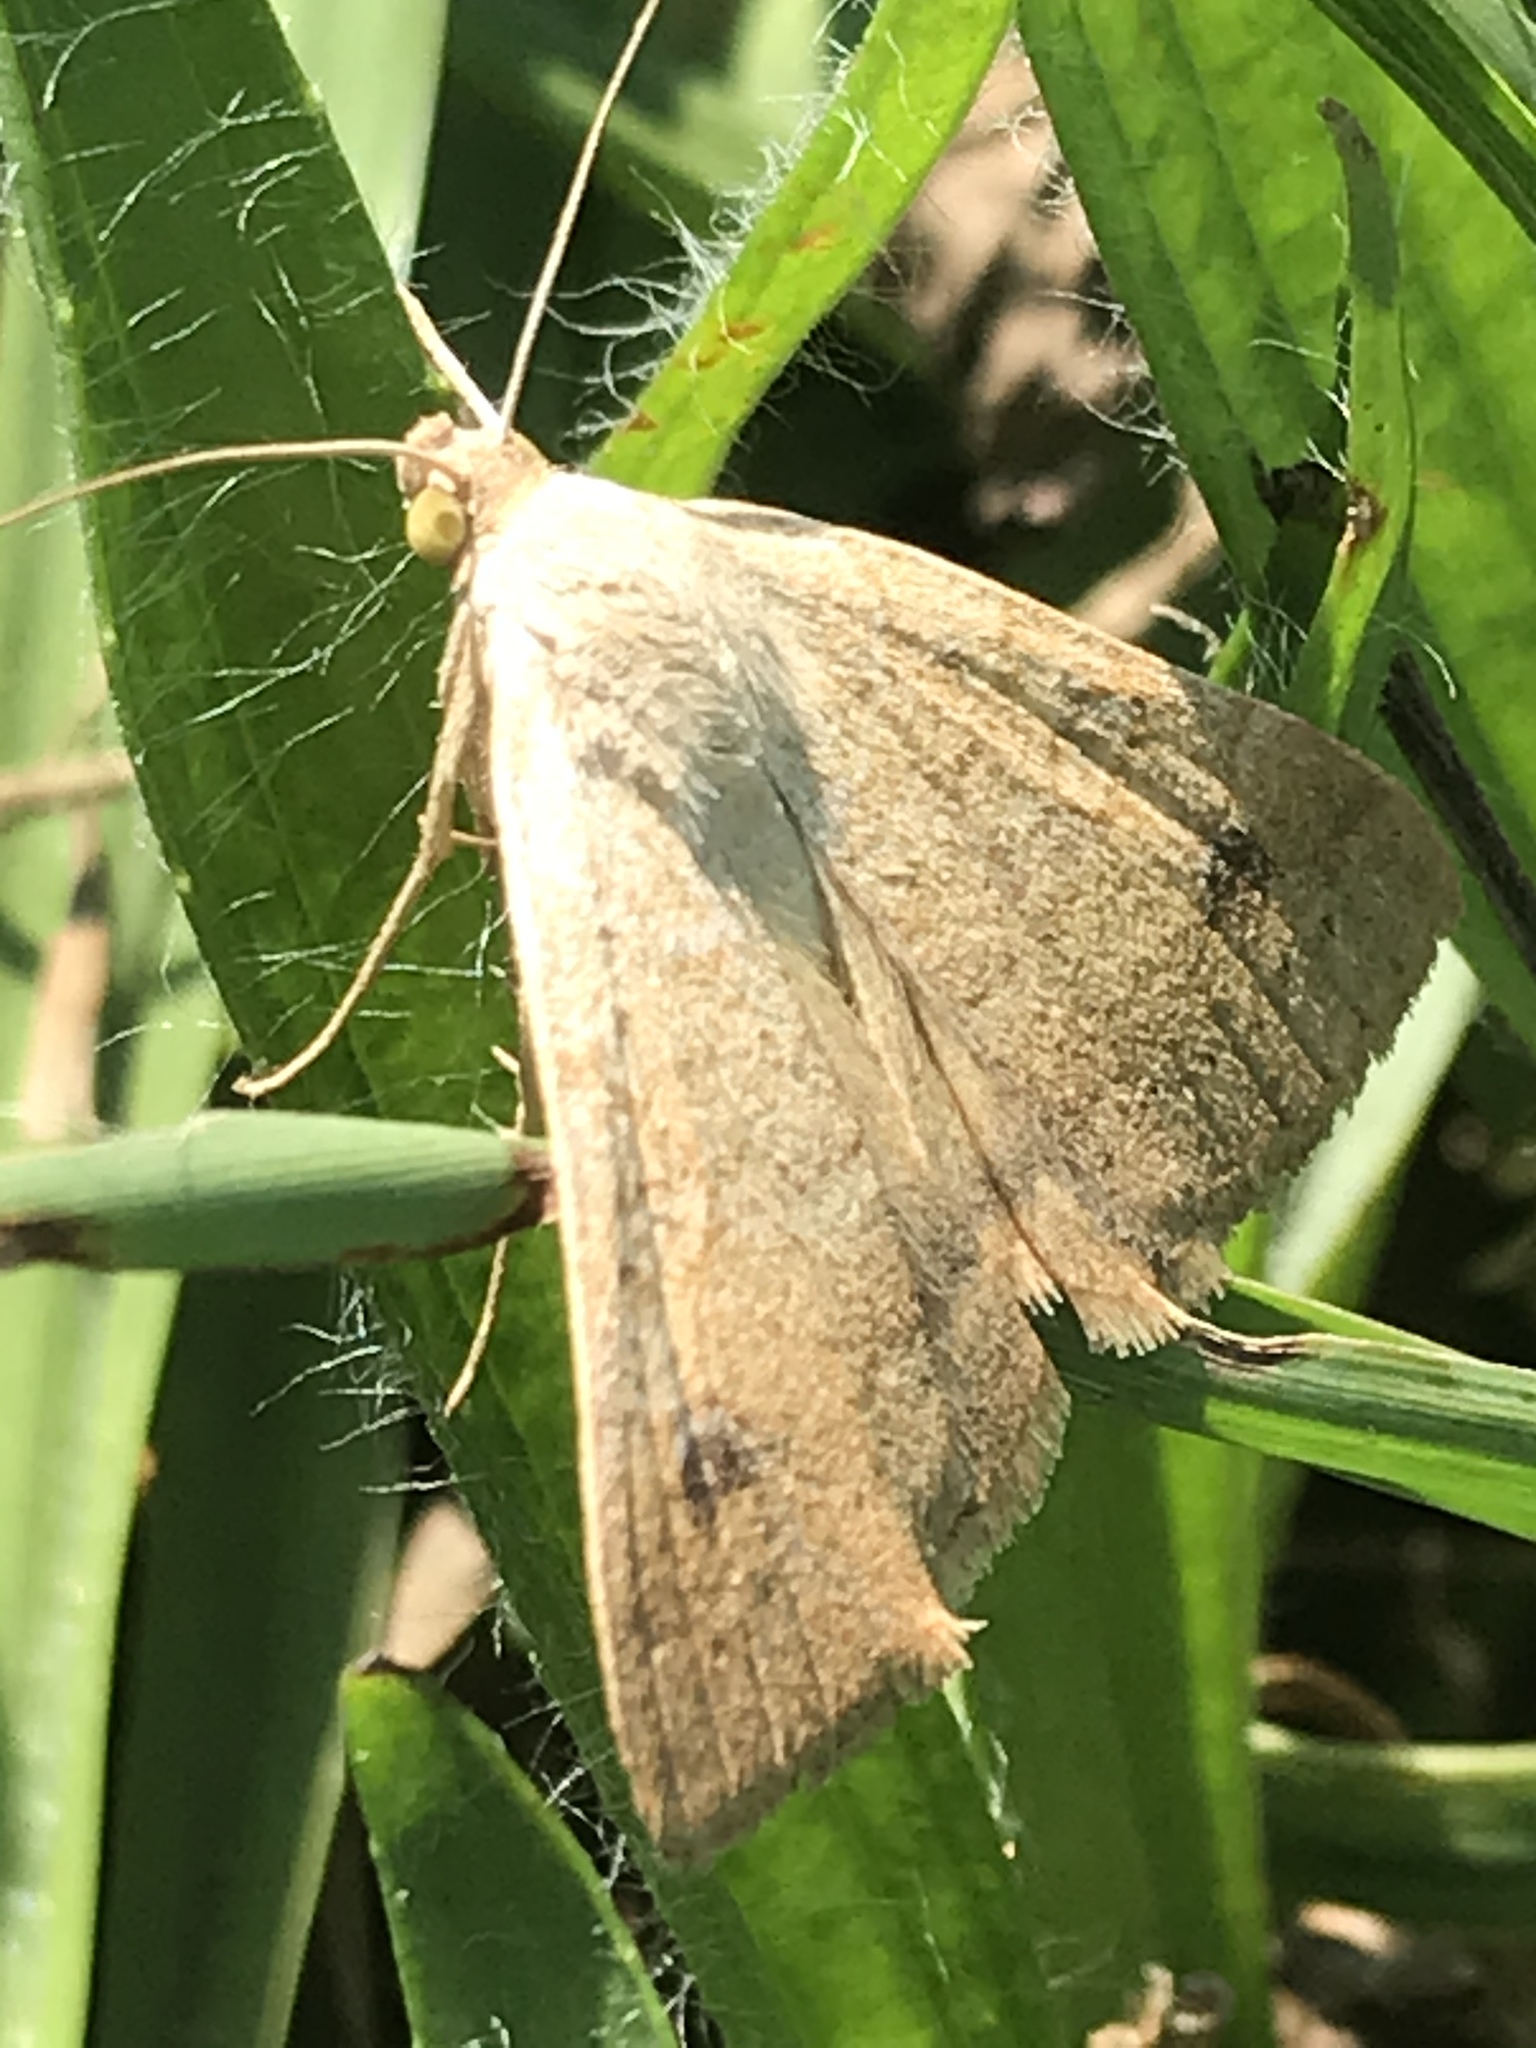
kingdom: Animalia
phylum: Arthropoda
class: Insecta
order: Lepidoptera
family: Erebidae
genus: Caenurgia
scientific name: Caenurgia chloropha
